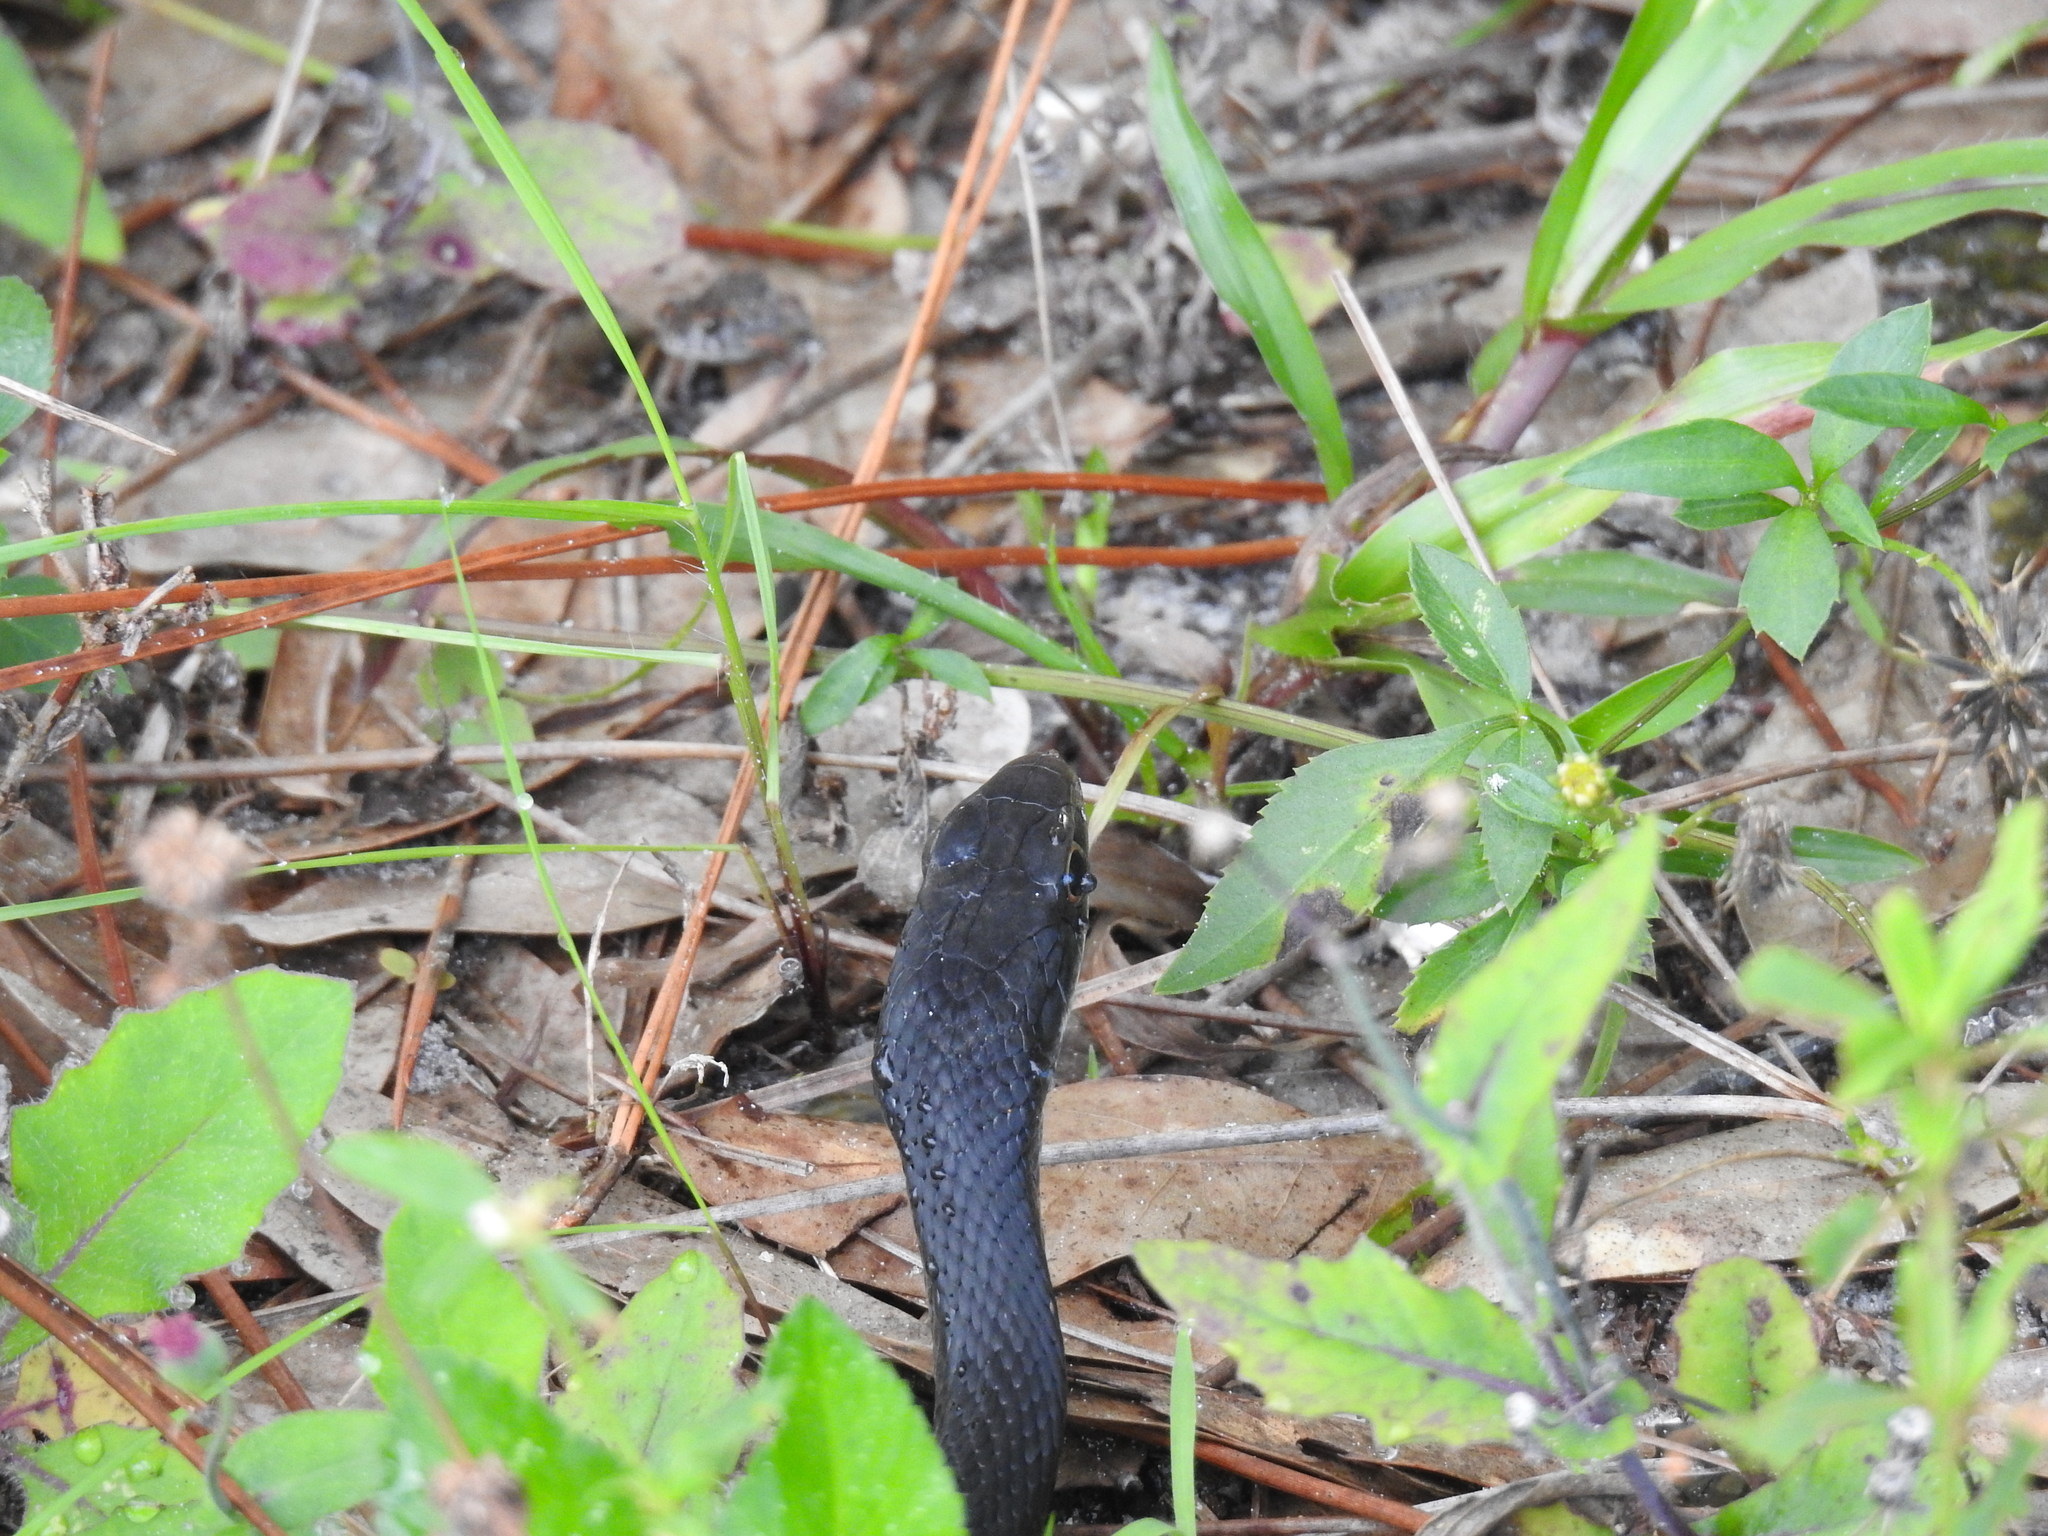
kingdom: Animalia
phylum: Chordata
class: Squamata
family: Colubridae
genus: Coluber
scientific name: Coluber constrictor
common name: Eastern racer
